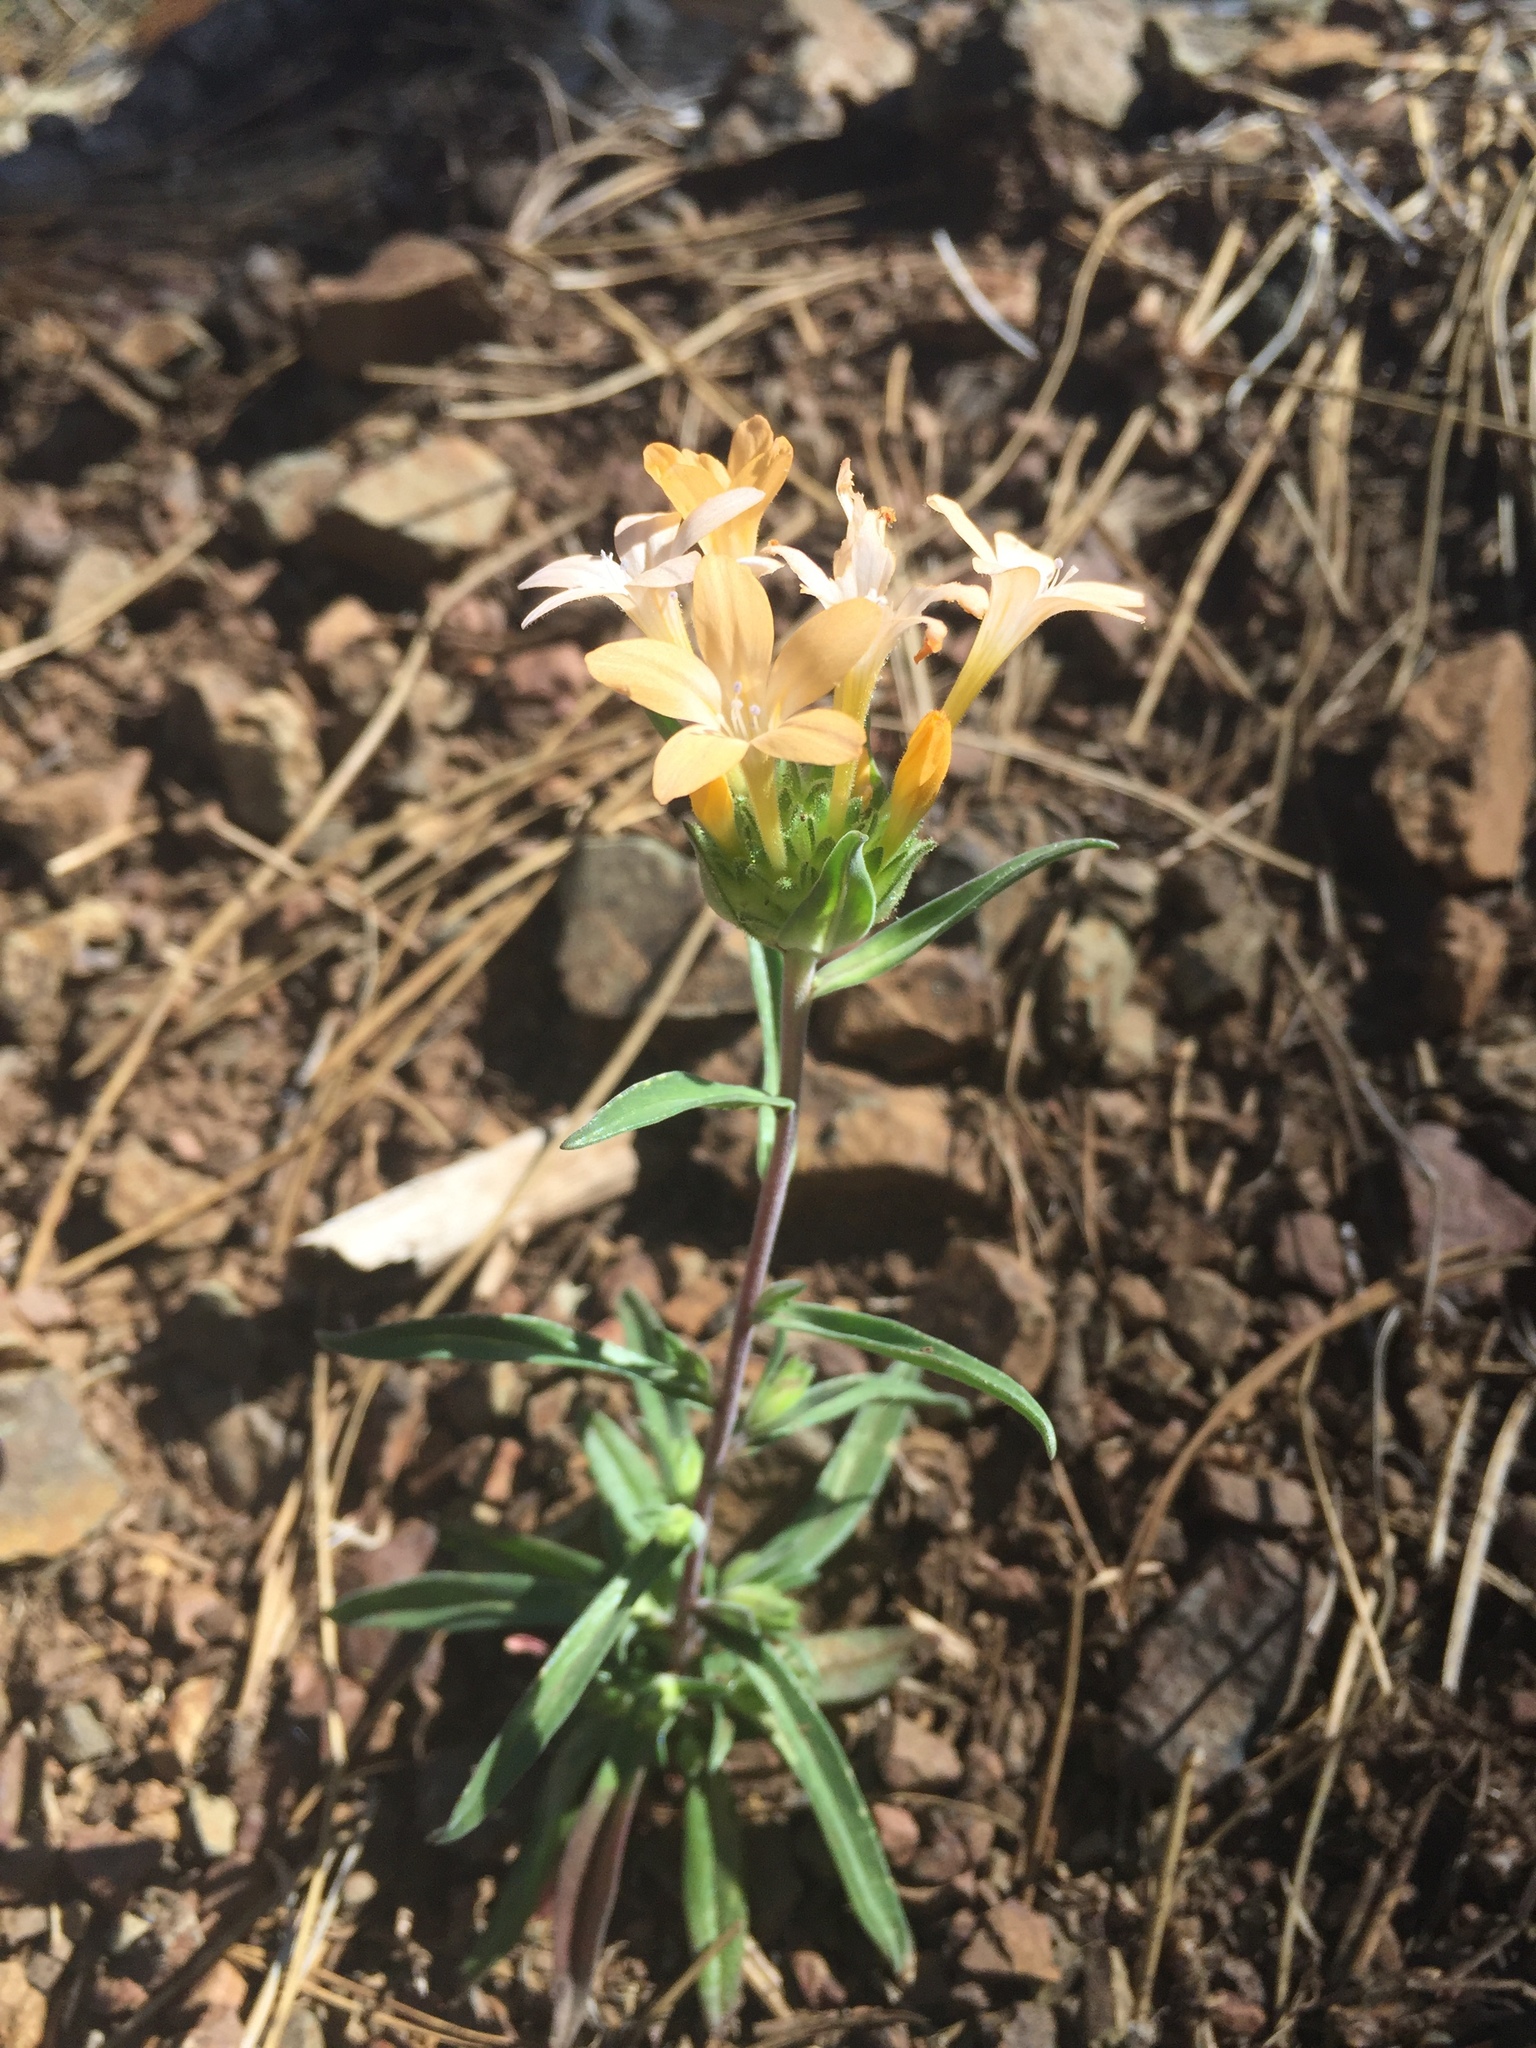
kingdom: Plantae
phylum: Tracheophyta
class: Magnoliopsida
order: Ericales
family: Polemoniaceae
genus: Collomia
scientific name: Collomia grandiflora
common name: California strawflower
